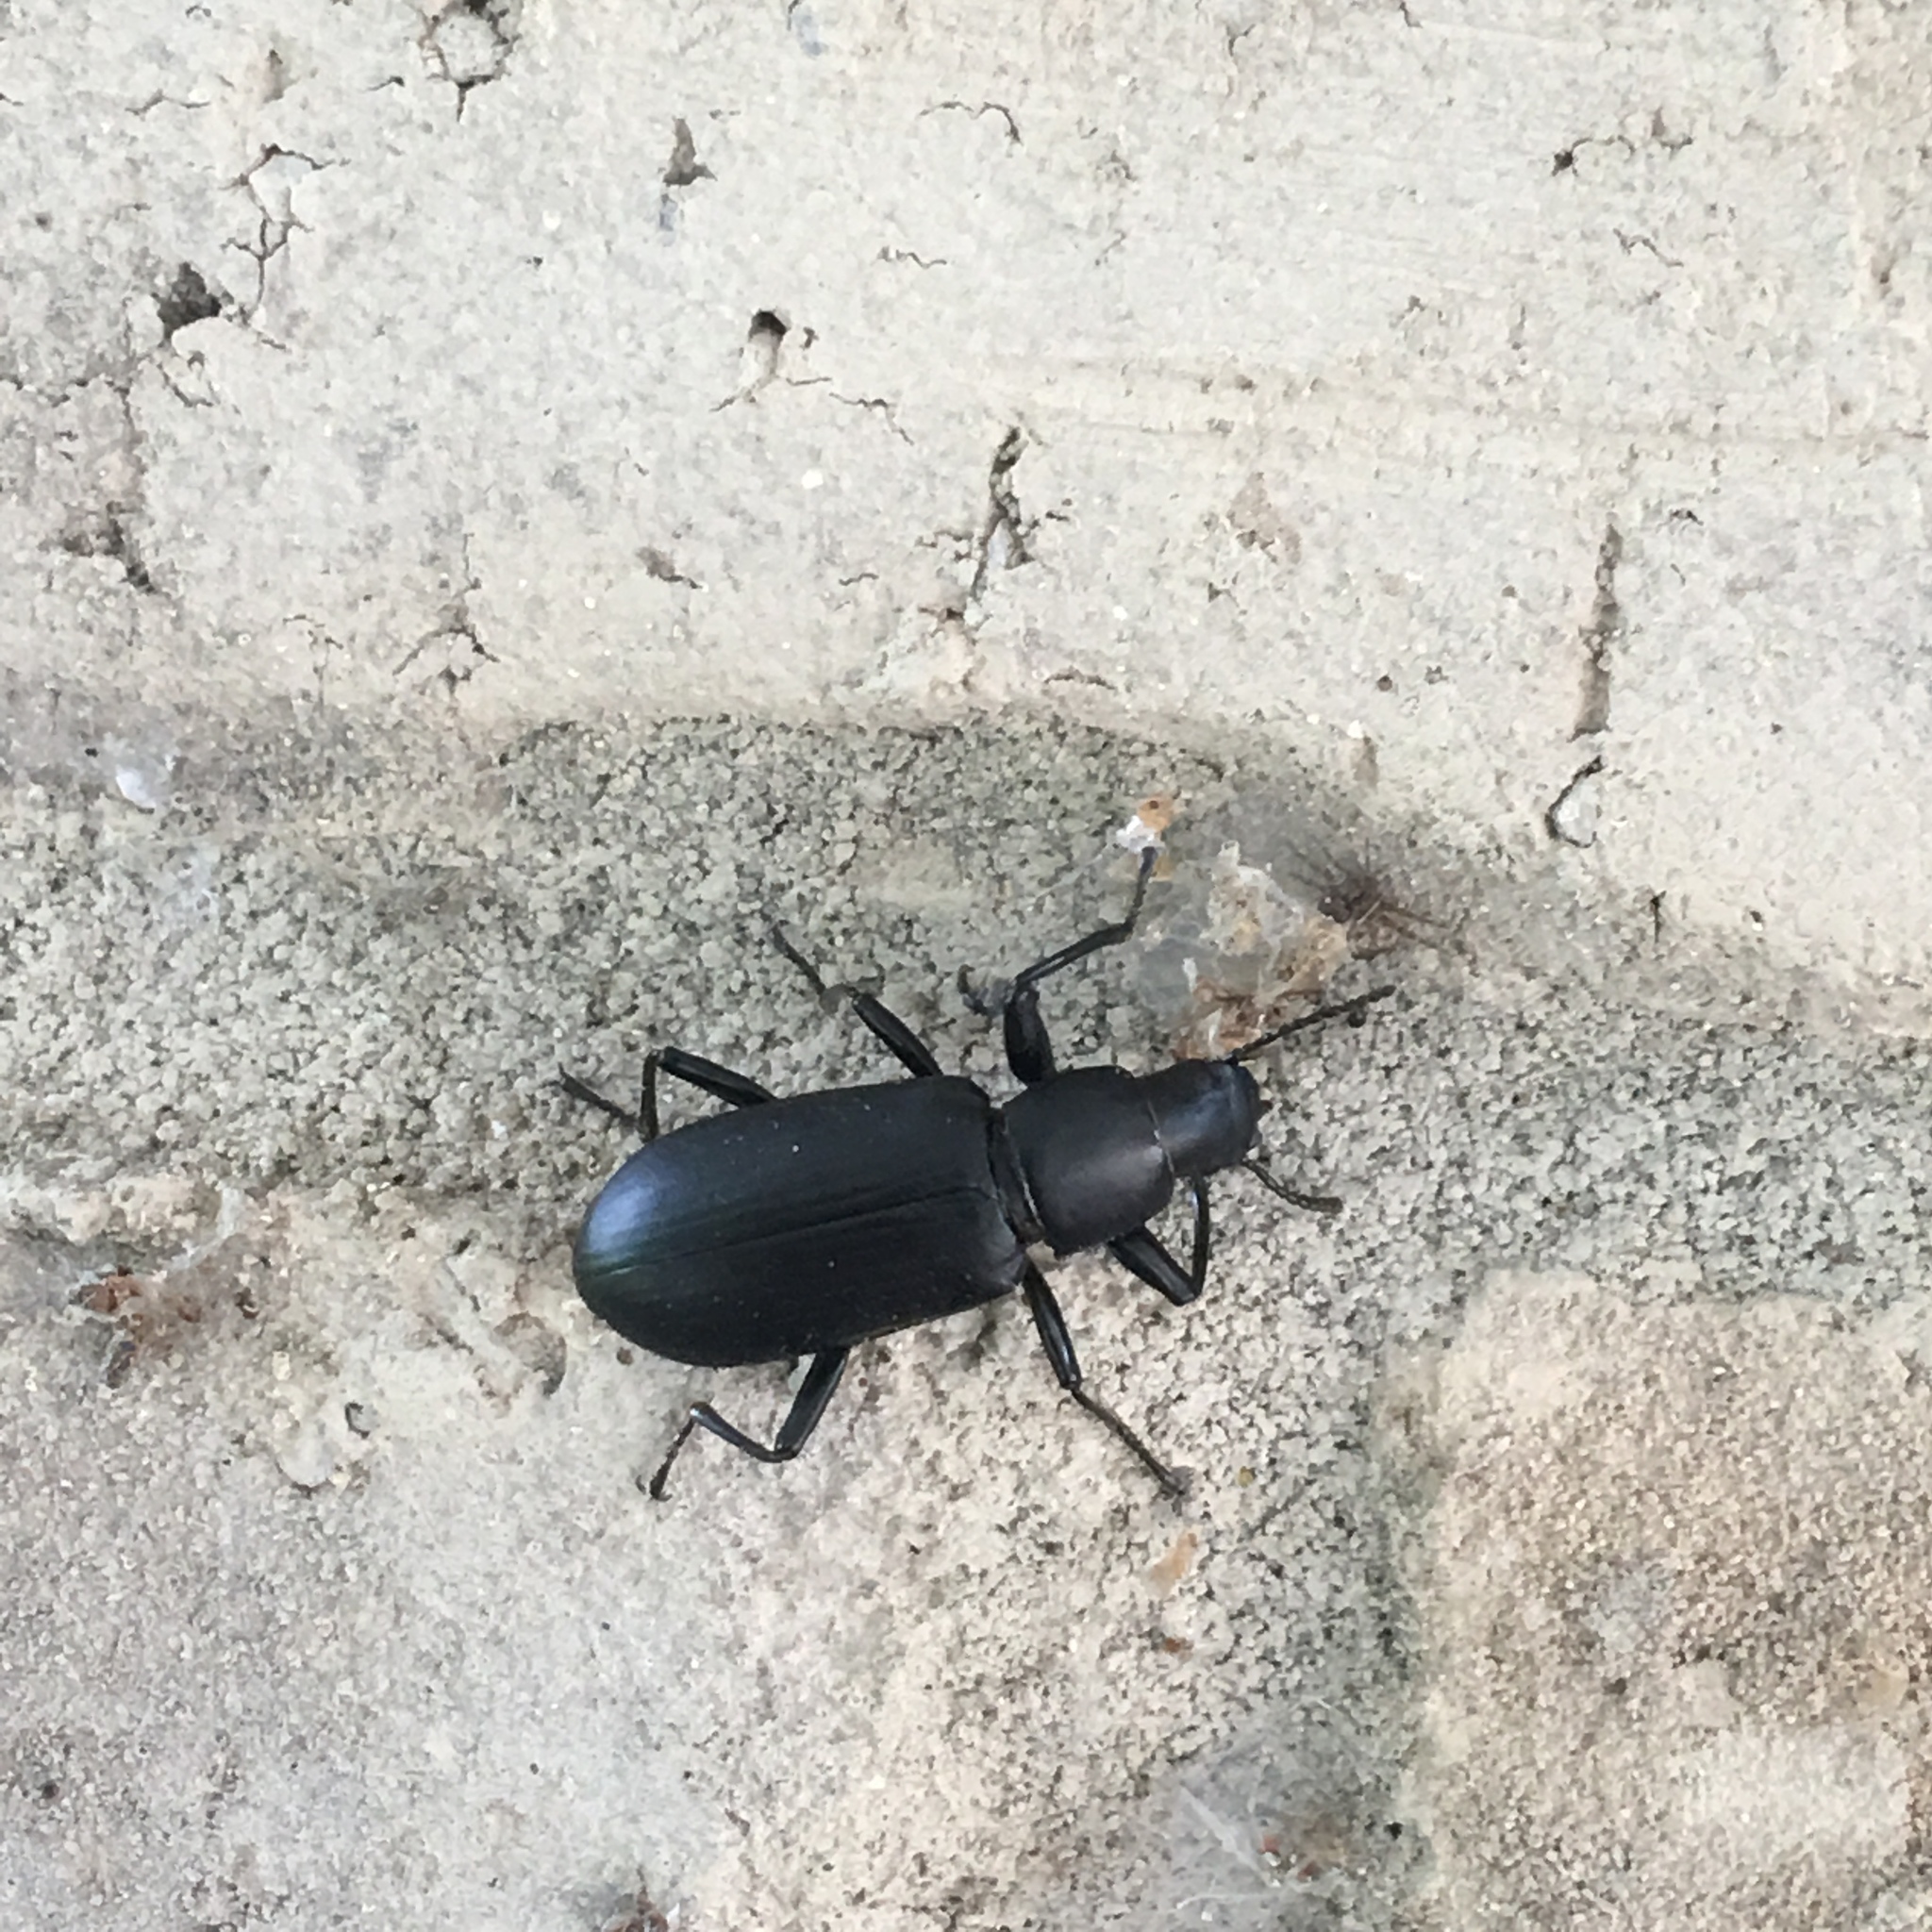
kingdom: Animalia
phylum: Arthropoda
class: Insecta
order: Coleoptera
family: Tenebrionidae
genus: Alobates
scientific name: Alobates pensylvanicus
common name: False mealworm beetle
